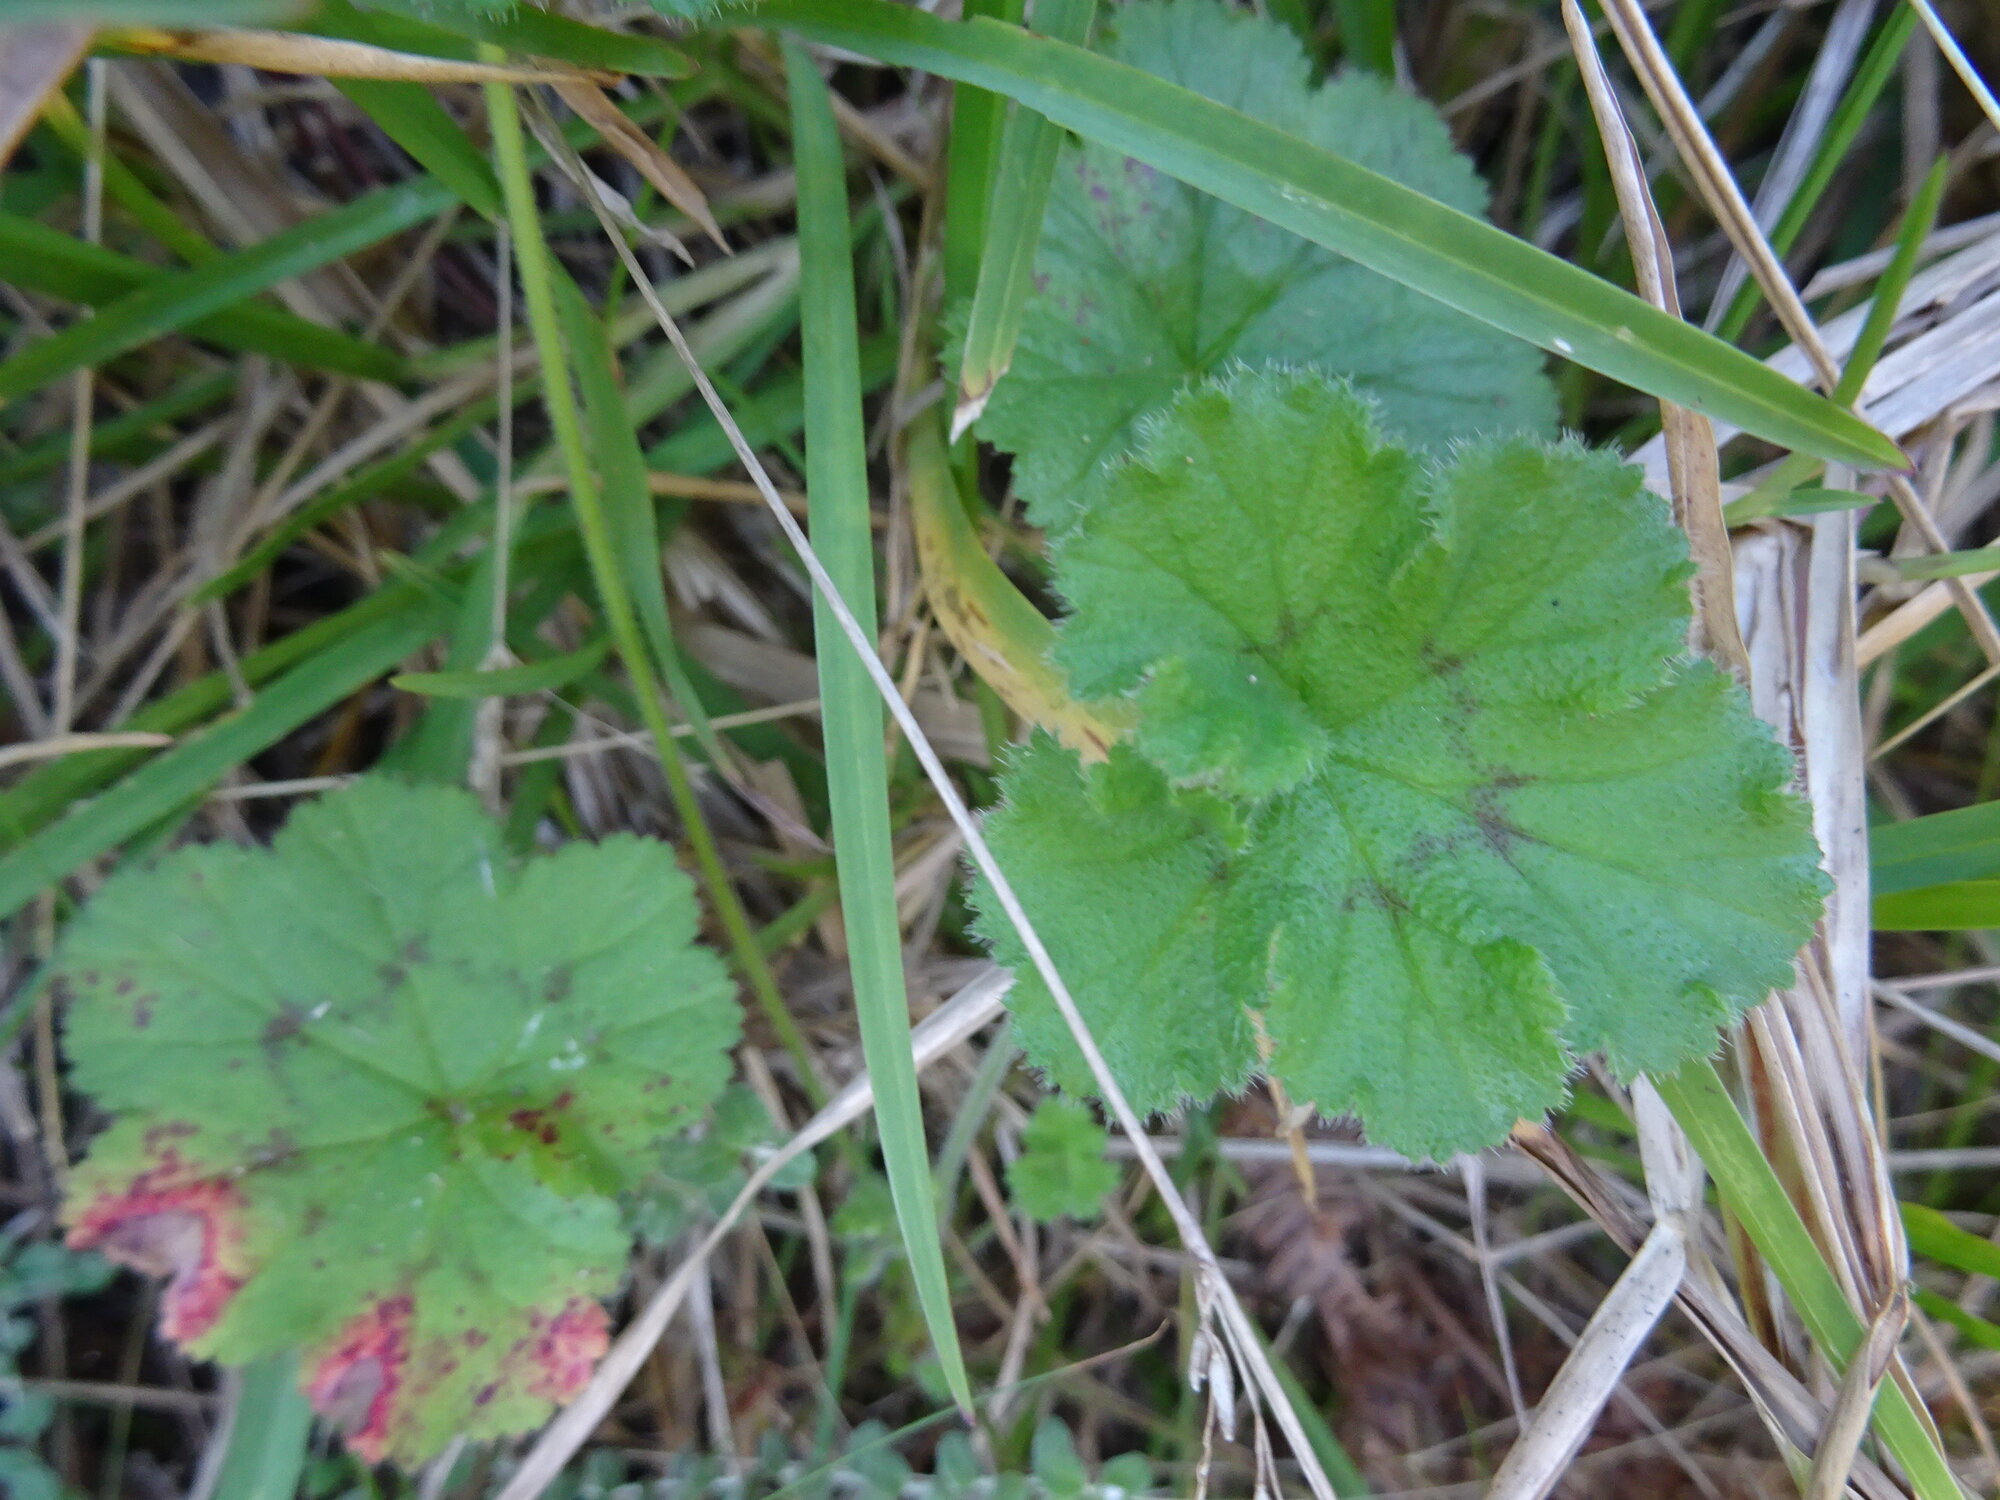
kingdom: Plantae
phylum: Tracheophyta
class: Magnoliopsida
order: Geraniales
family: Geraniaceae
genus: Pelargonium
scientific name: Pelargonium elongatum
